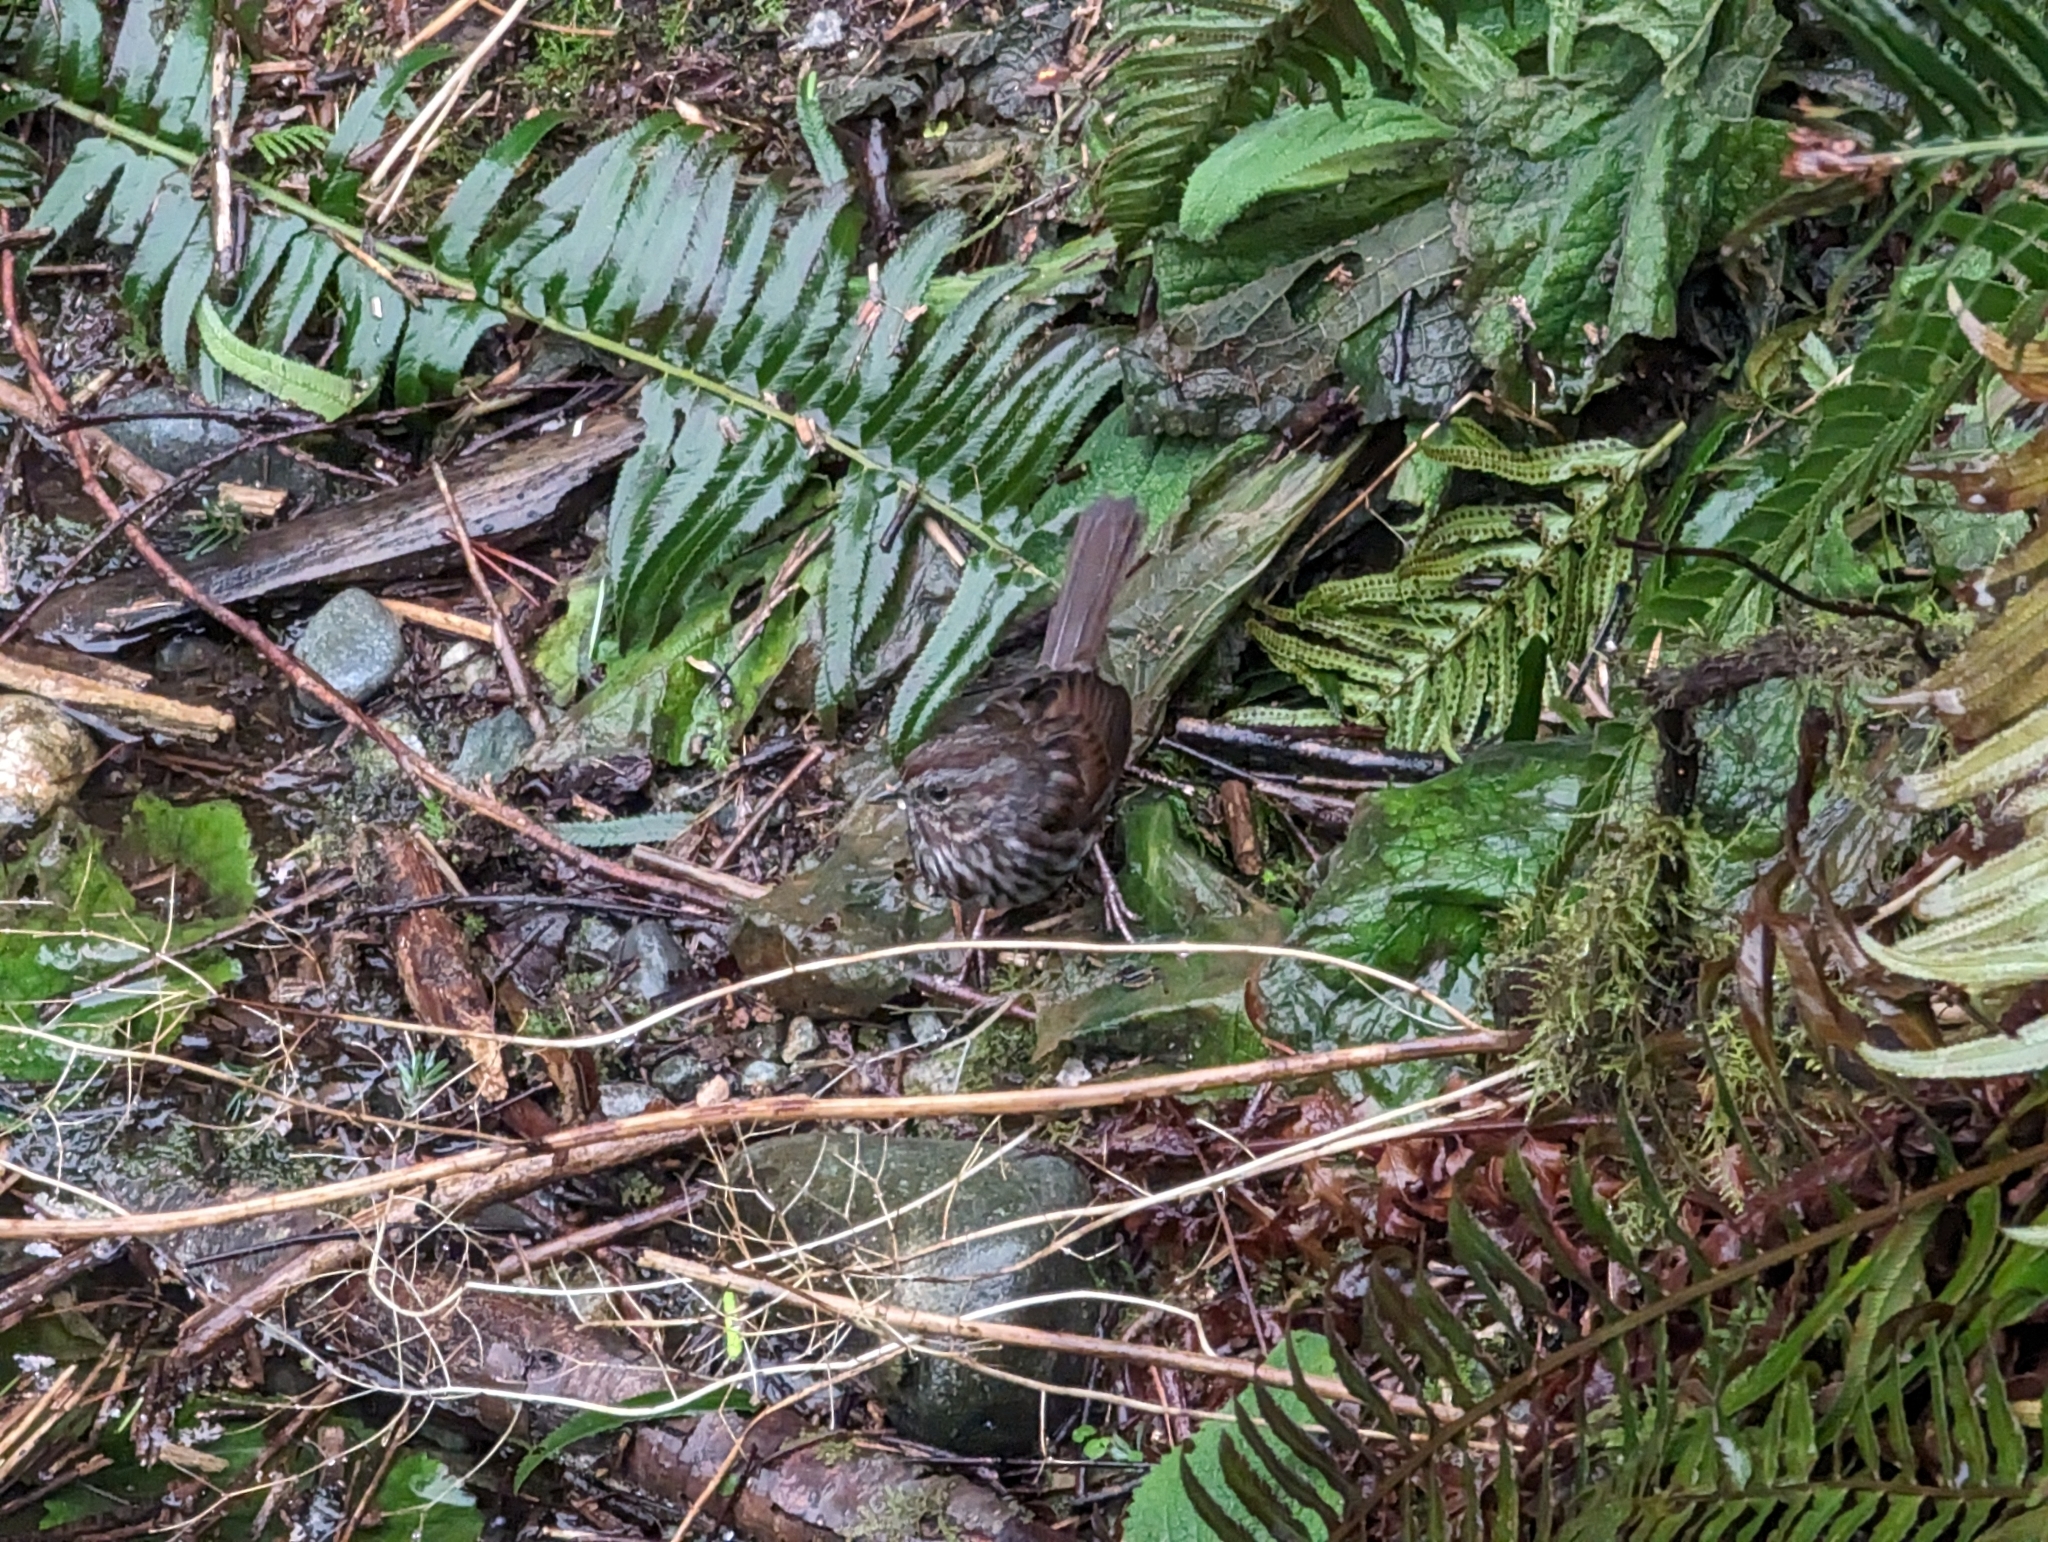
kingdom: Animalia
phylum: Chordata
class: Aves
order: Passeriformes
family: Passerellidae
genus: Melospiza
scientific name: Melospiza melodia
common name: Song sparrow
